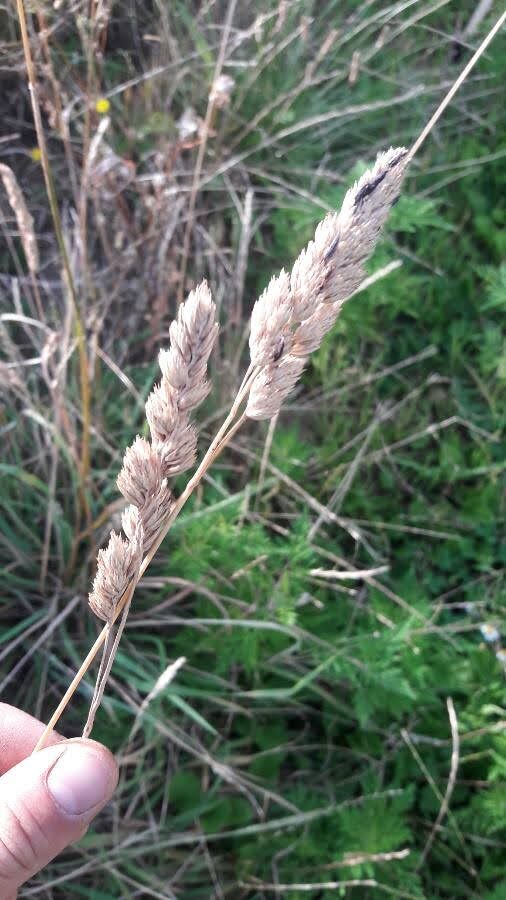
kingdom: Plantae
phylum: Tracheophyta
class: Liliopsida
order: Poales
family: Poaceae
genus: Dactylis
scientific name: Dactylis glomerata
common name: Orchardgrass
